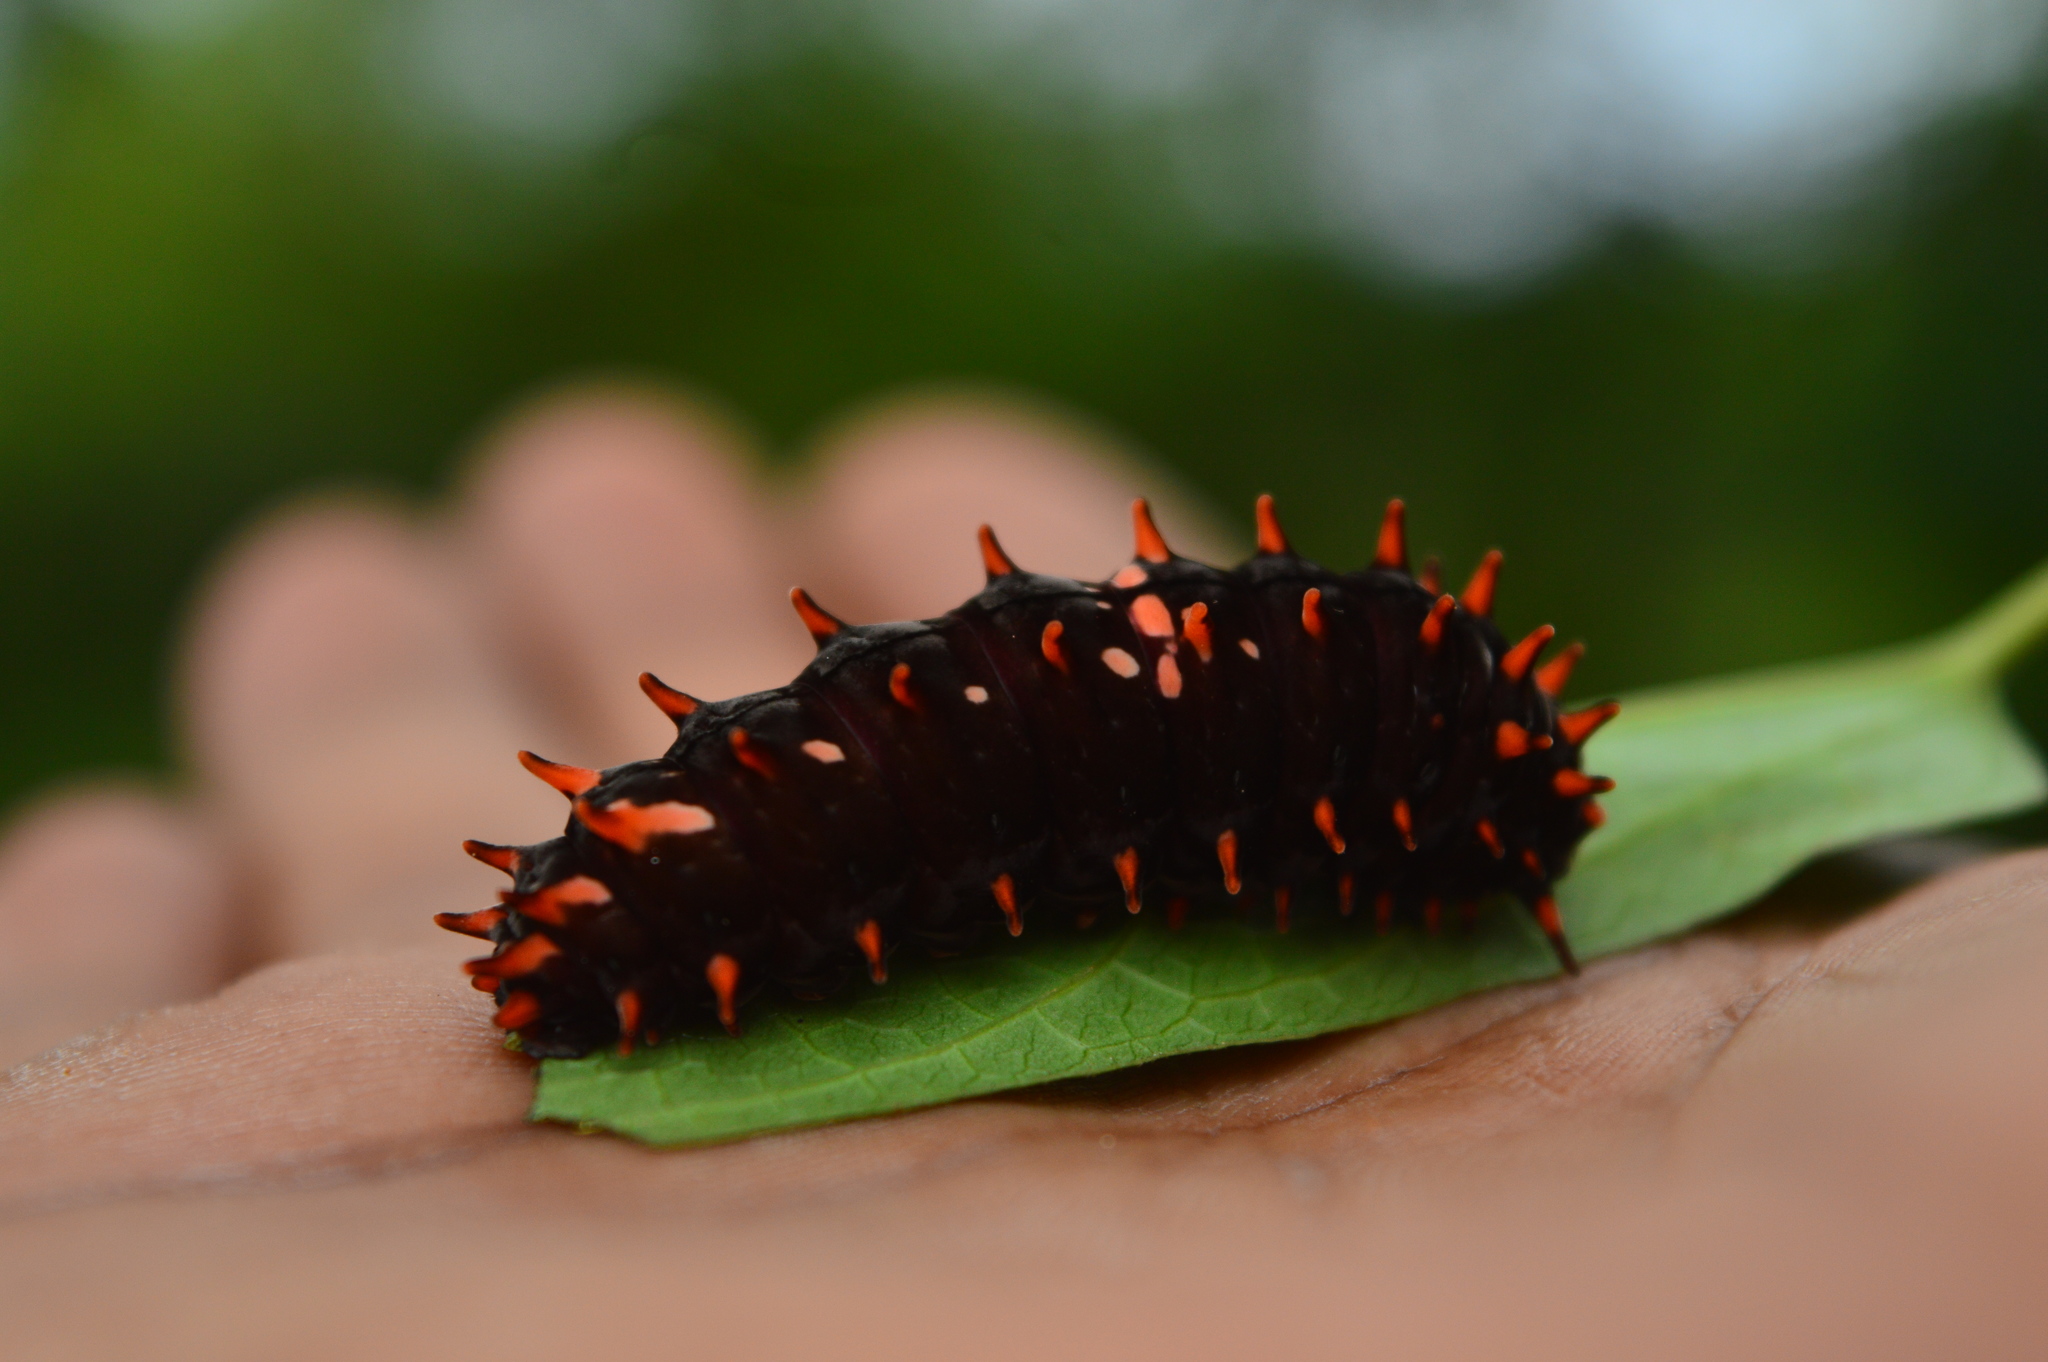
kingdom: Animalia
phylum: Arthropoda
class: Insecta
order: Lepidoptera
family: Papilionidae
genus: Pachliopta
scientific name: Pachliopta hector
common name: Crimson rose
